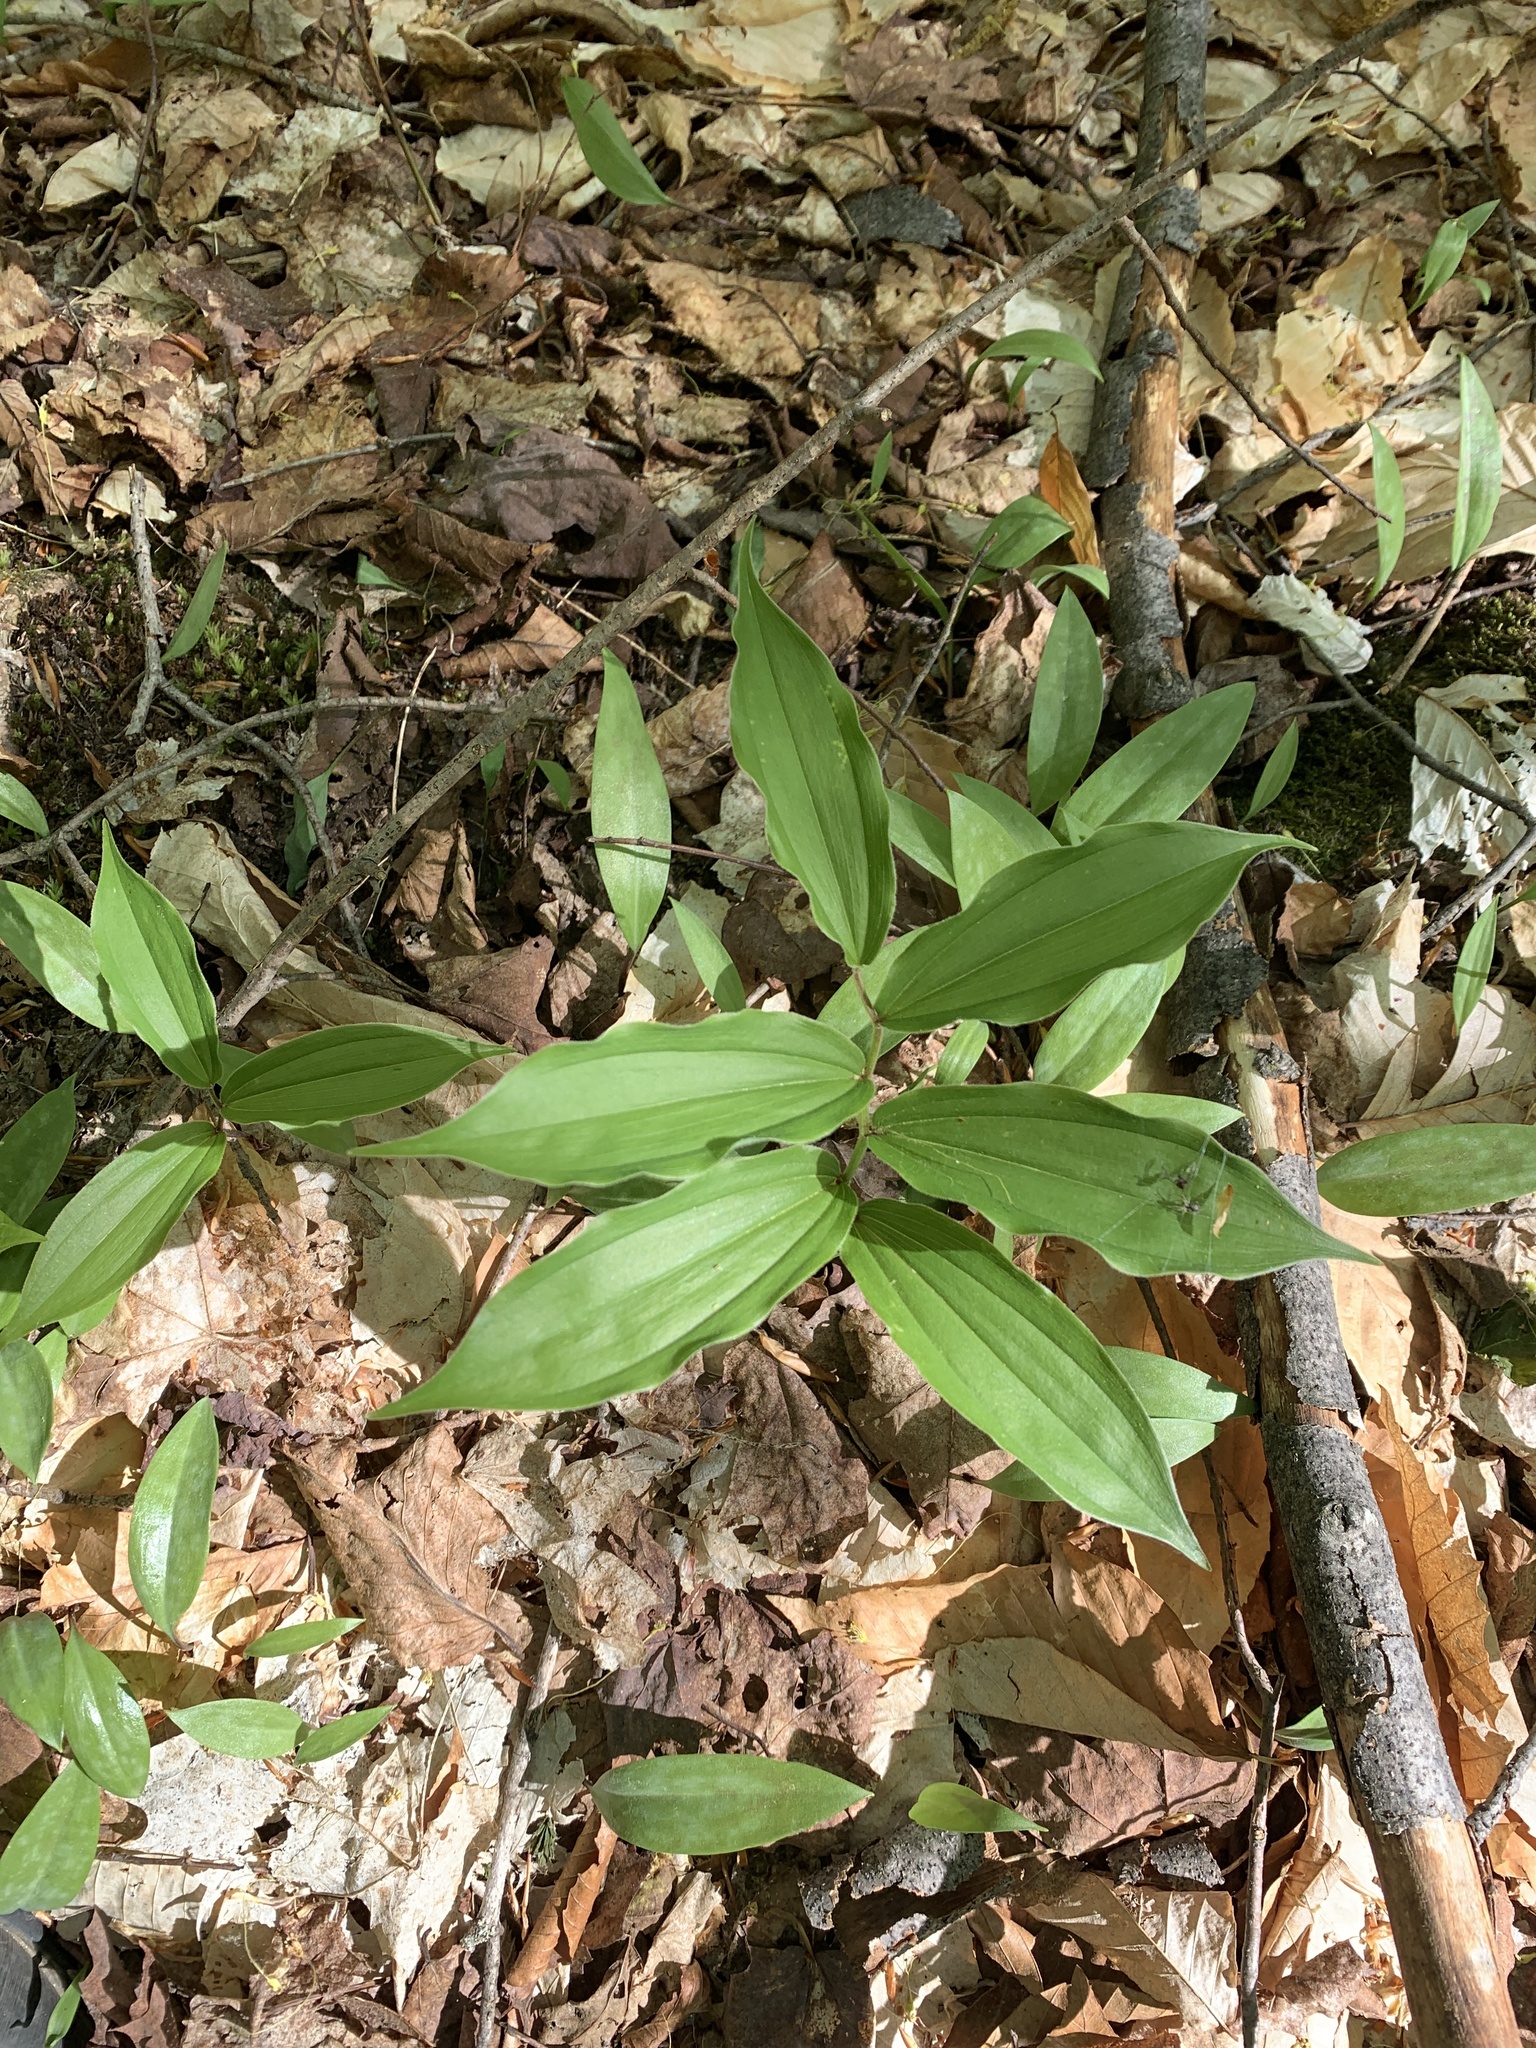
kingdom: Plantae
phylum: Tracheophyta
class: Liliopsida
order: Asparagales
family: Asparagaceae
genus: Maianthemum
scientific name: Maianthemum racemosum
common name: False spikenard
